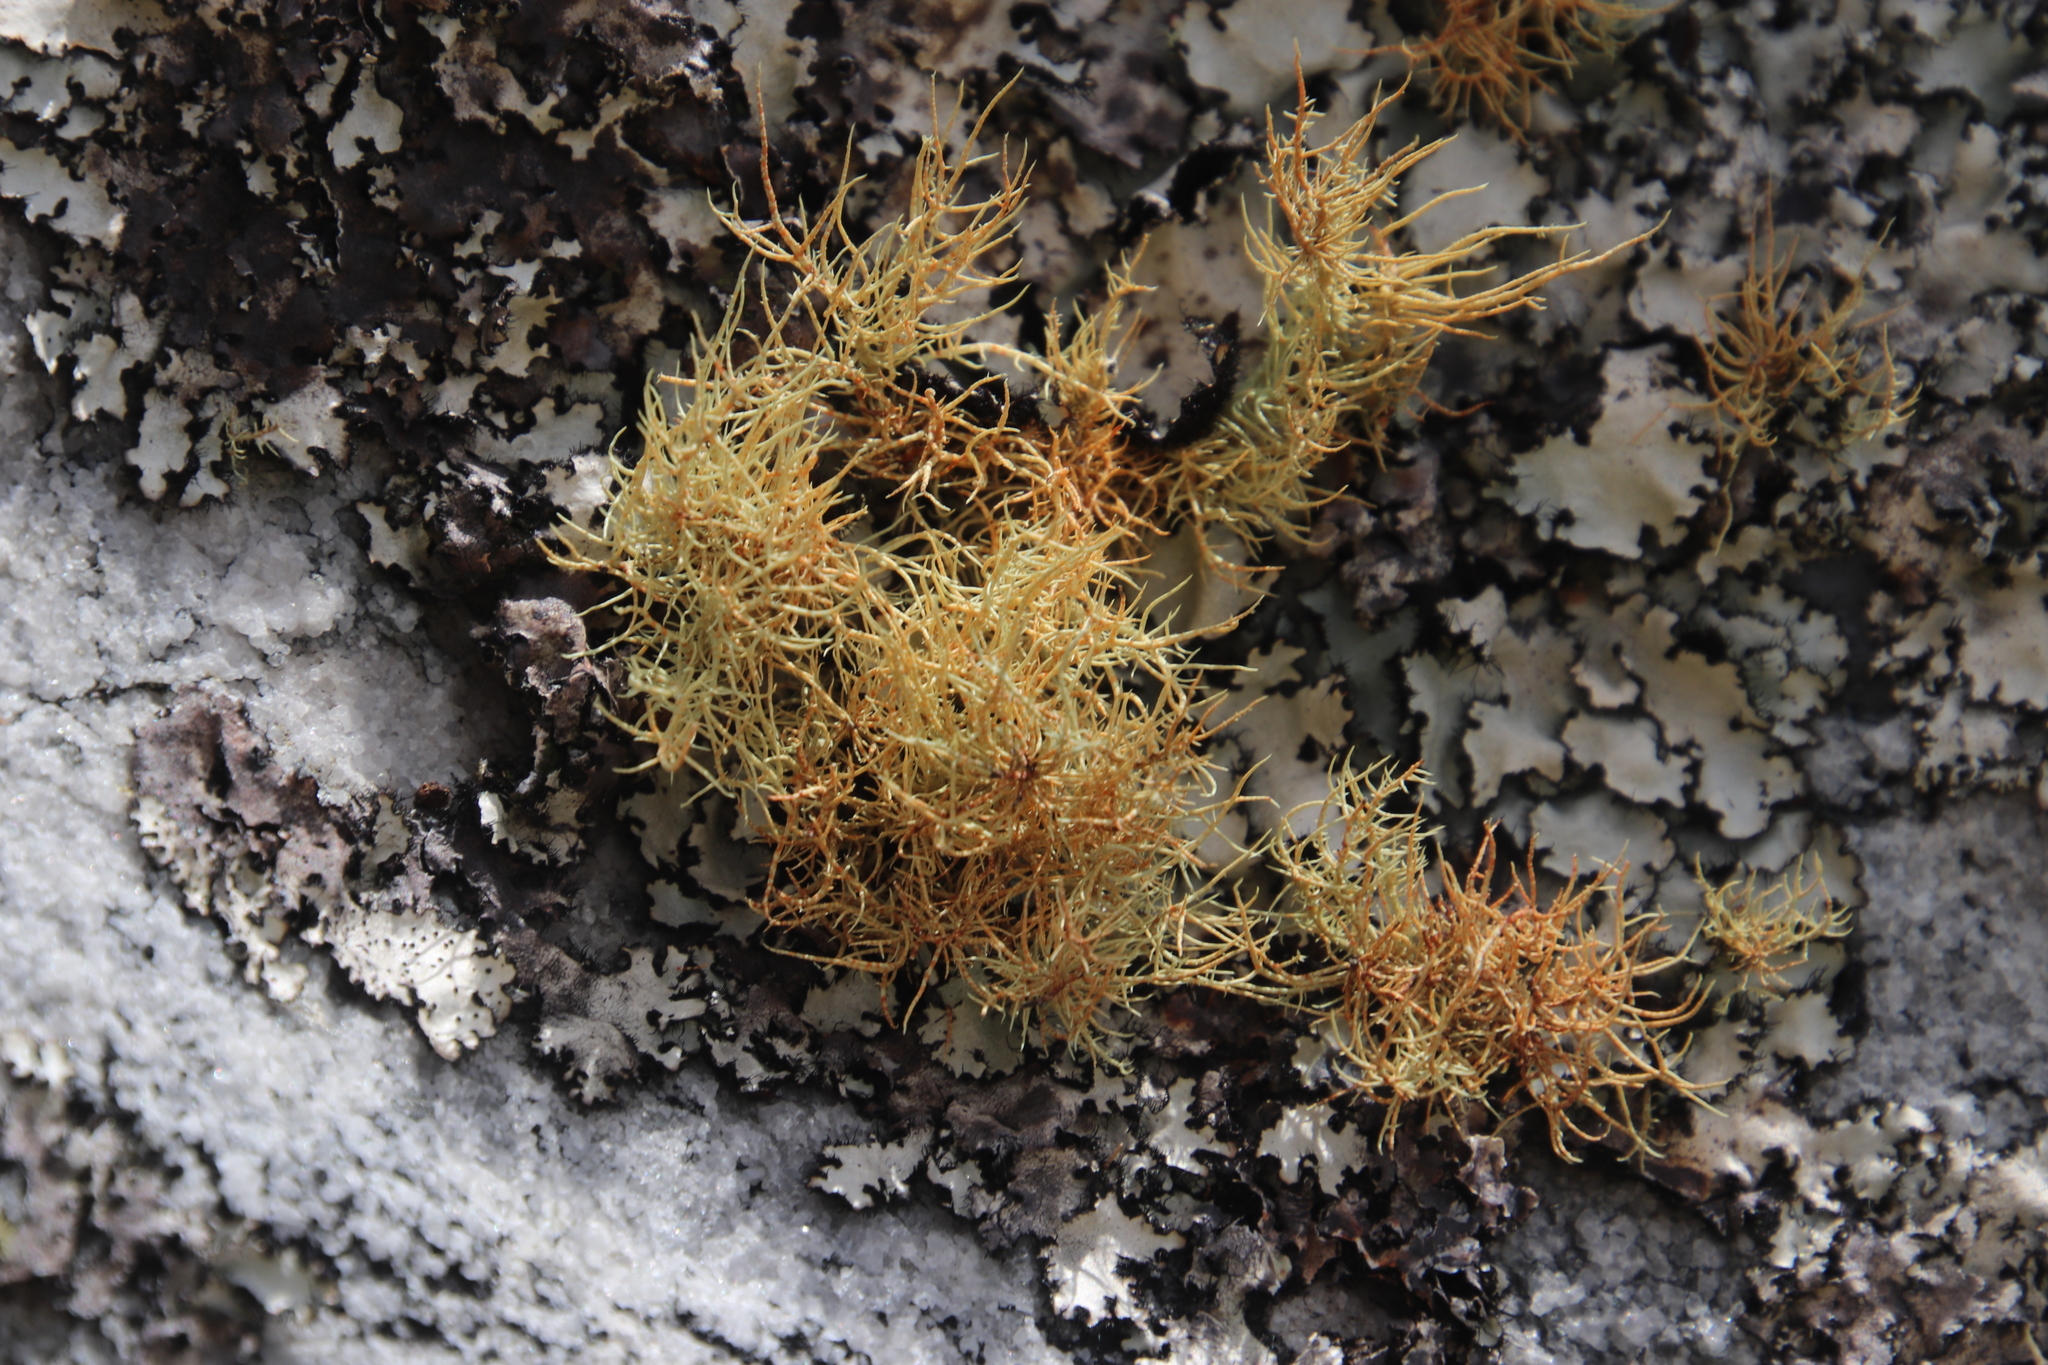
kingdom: Fungi
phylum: Ascomycota
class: Lecanoromycetes
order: Lecanorales
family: Parmeliaceae
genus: Usnea
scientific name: Usnea maculata
